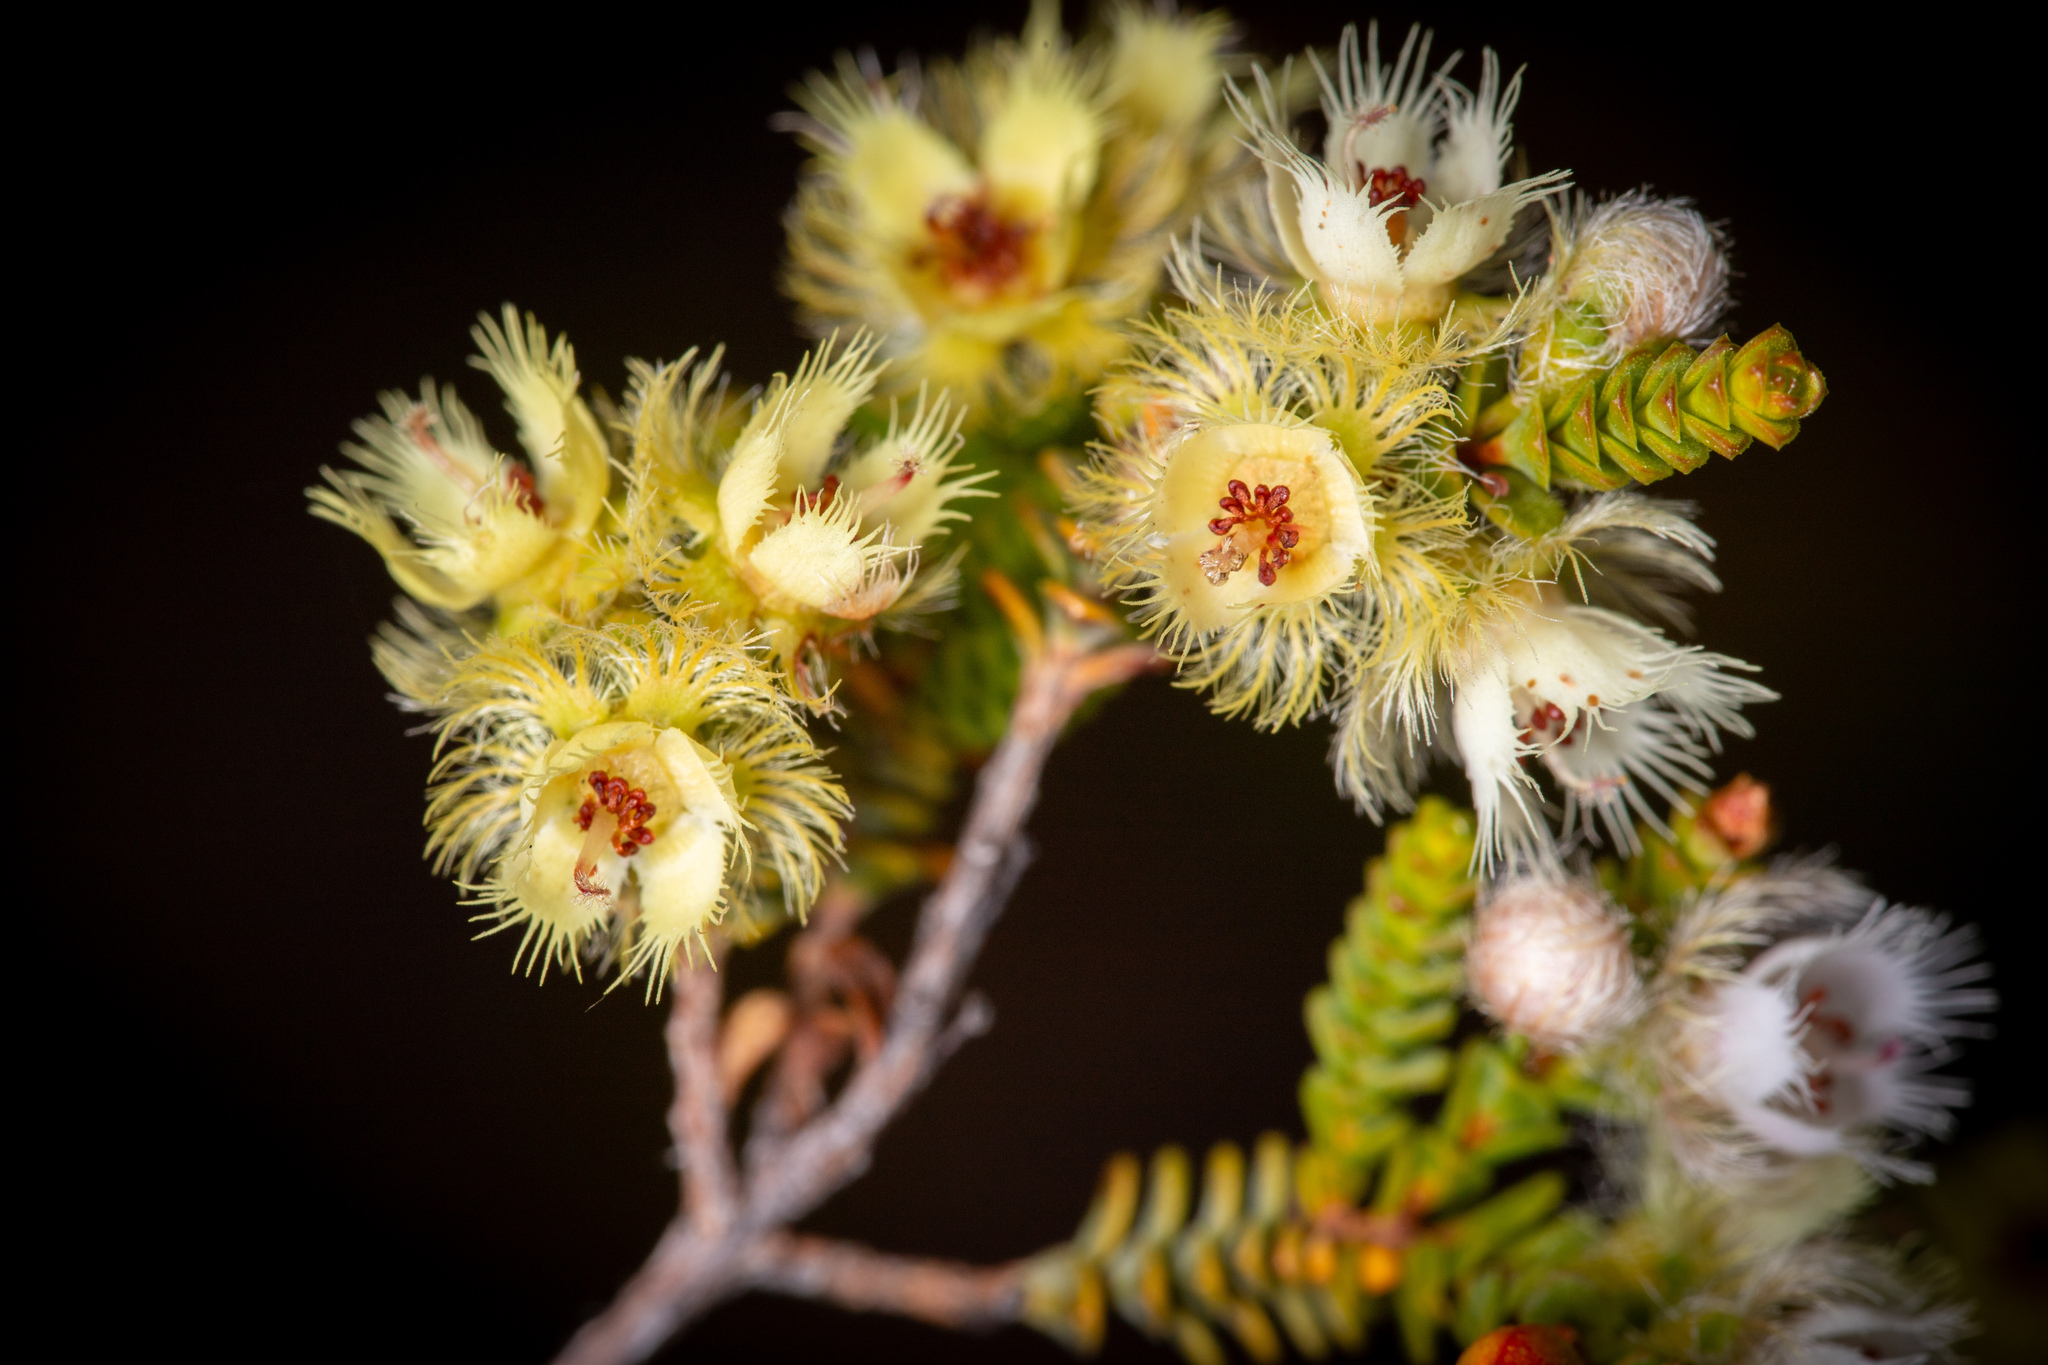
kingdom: Plantae
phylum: Tracheophyta
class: Magnoliopsida
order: Myrtales
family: Myrtaceae
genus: Verticordia
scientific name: Verticordia pholidophylla
